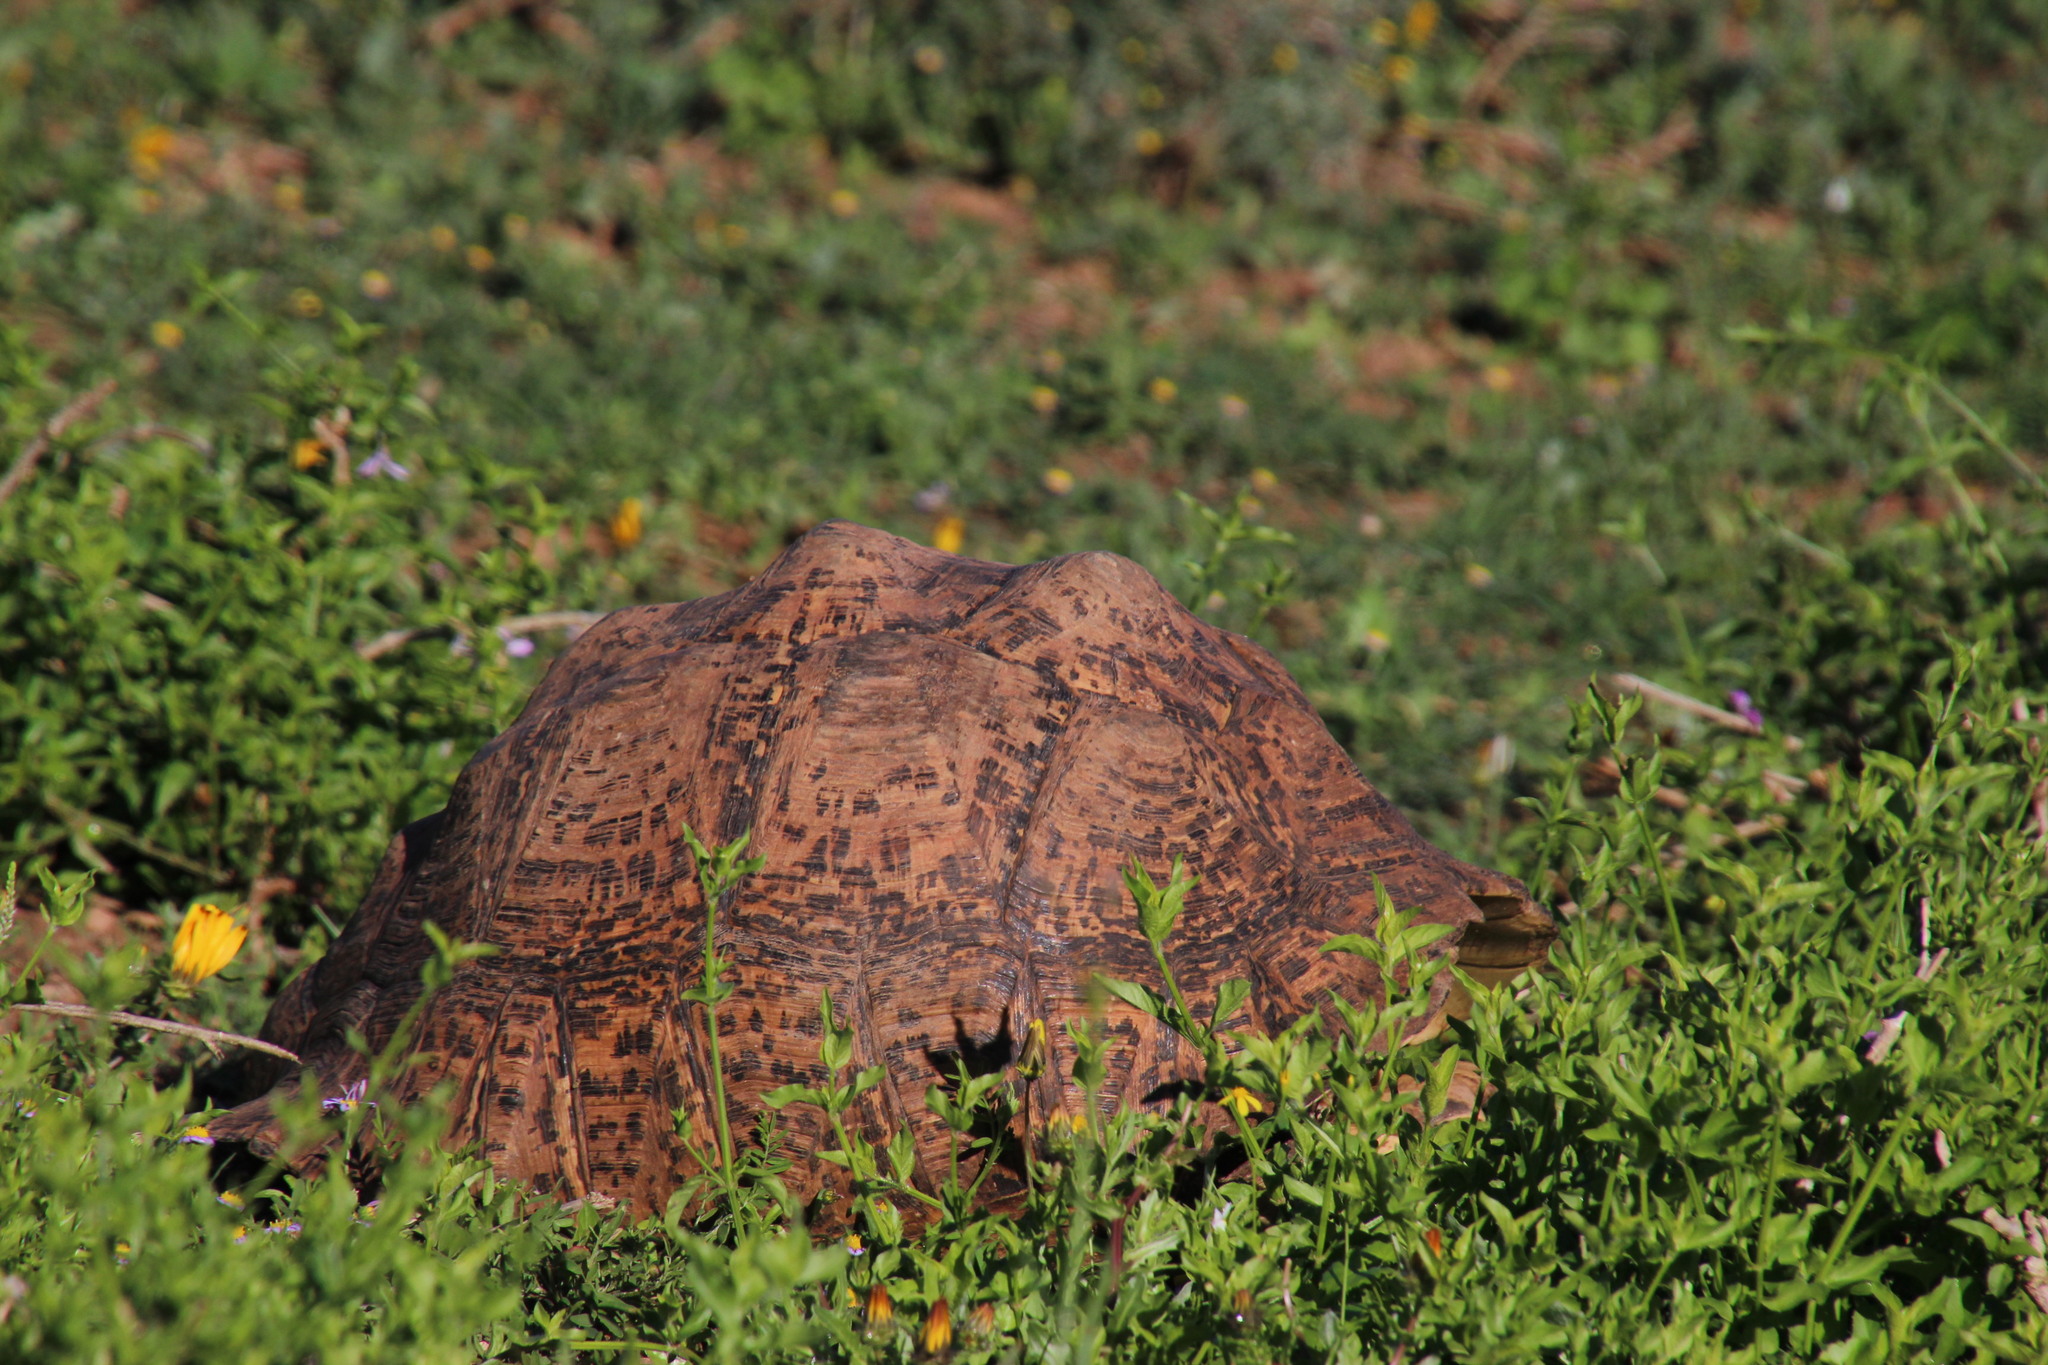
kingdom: Animalia
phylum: Chordata
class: Testudines
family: Testudinidae
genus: Stigmochelys
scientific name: Stigmochelys pardalis
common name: Leopard tortoise
